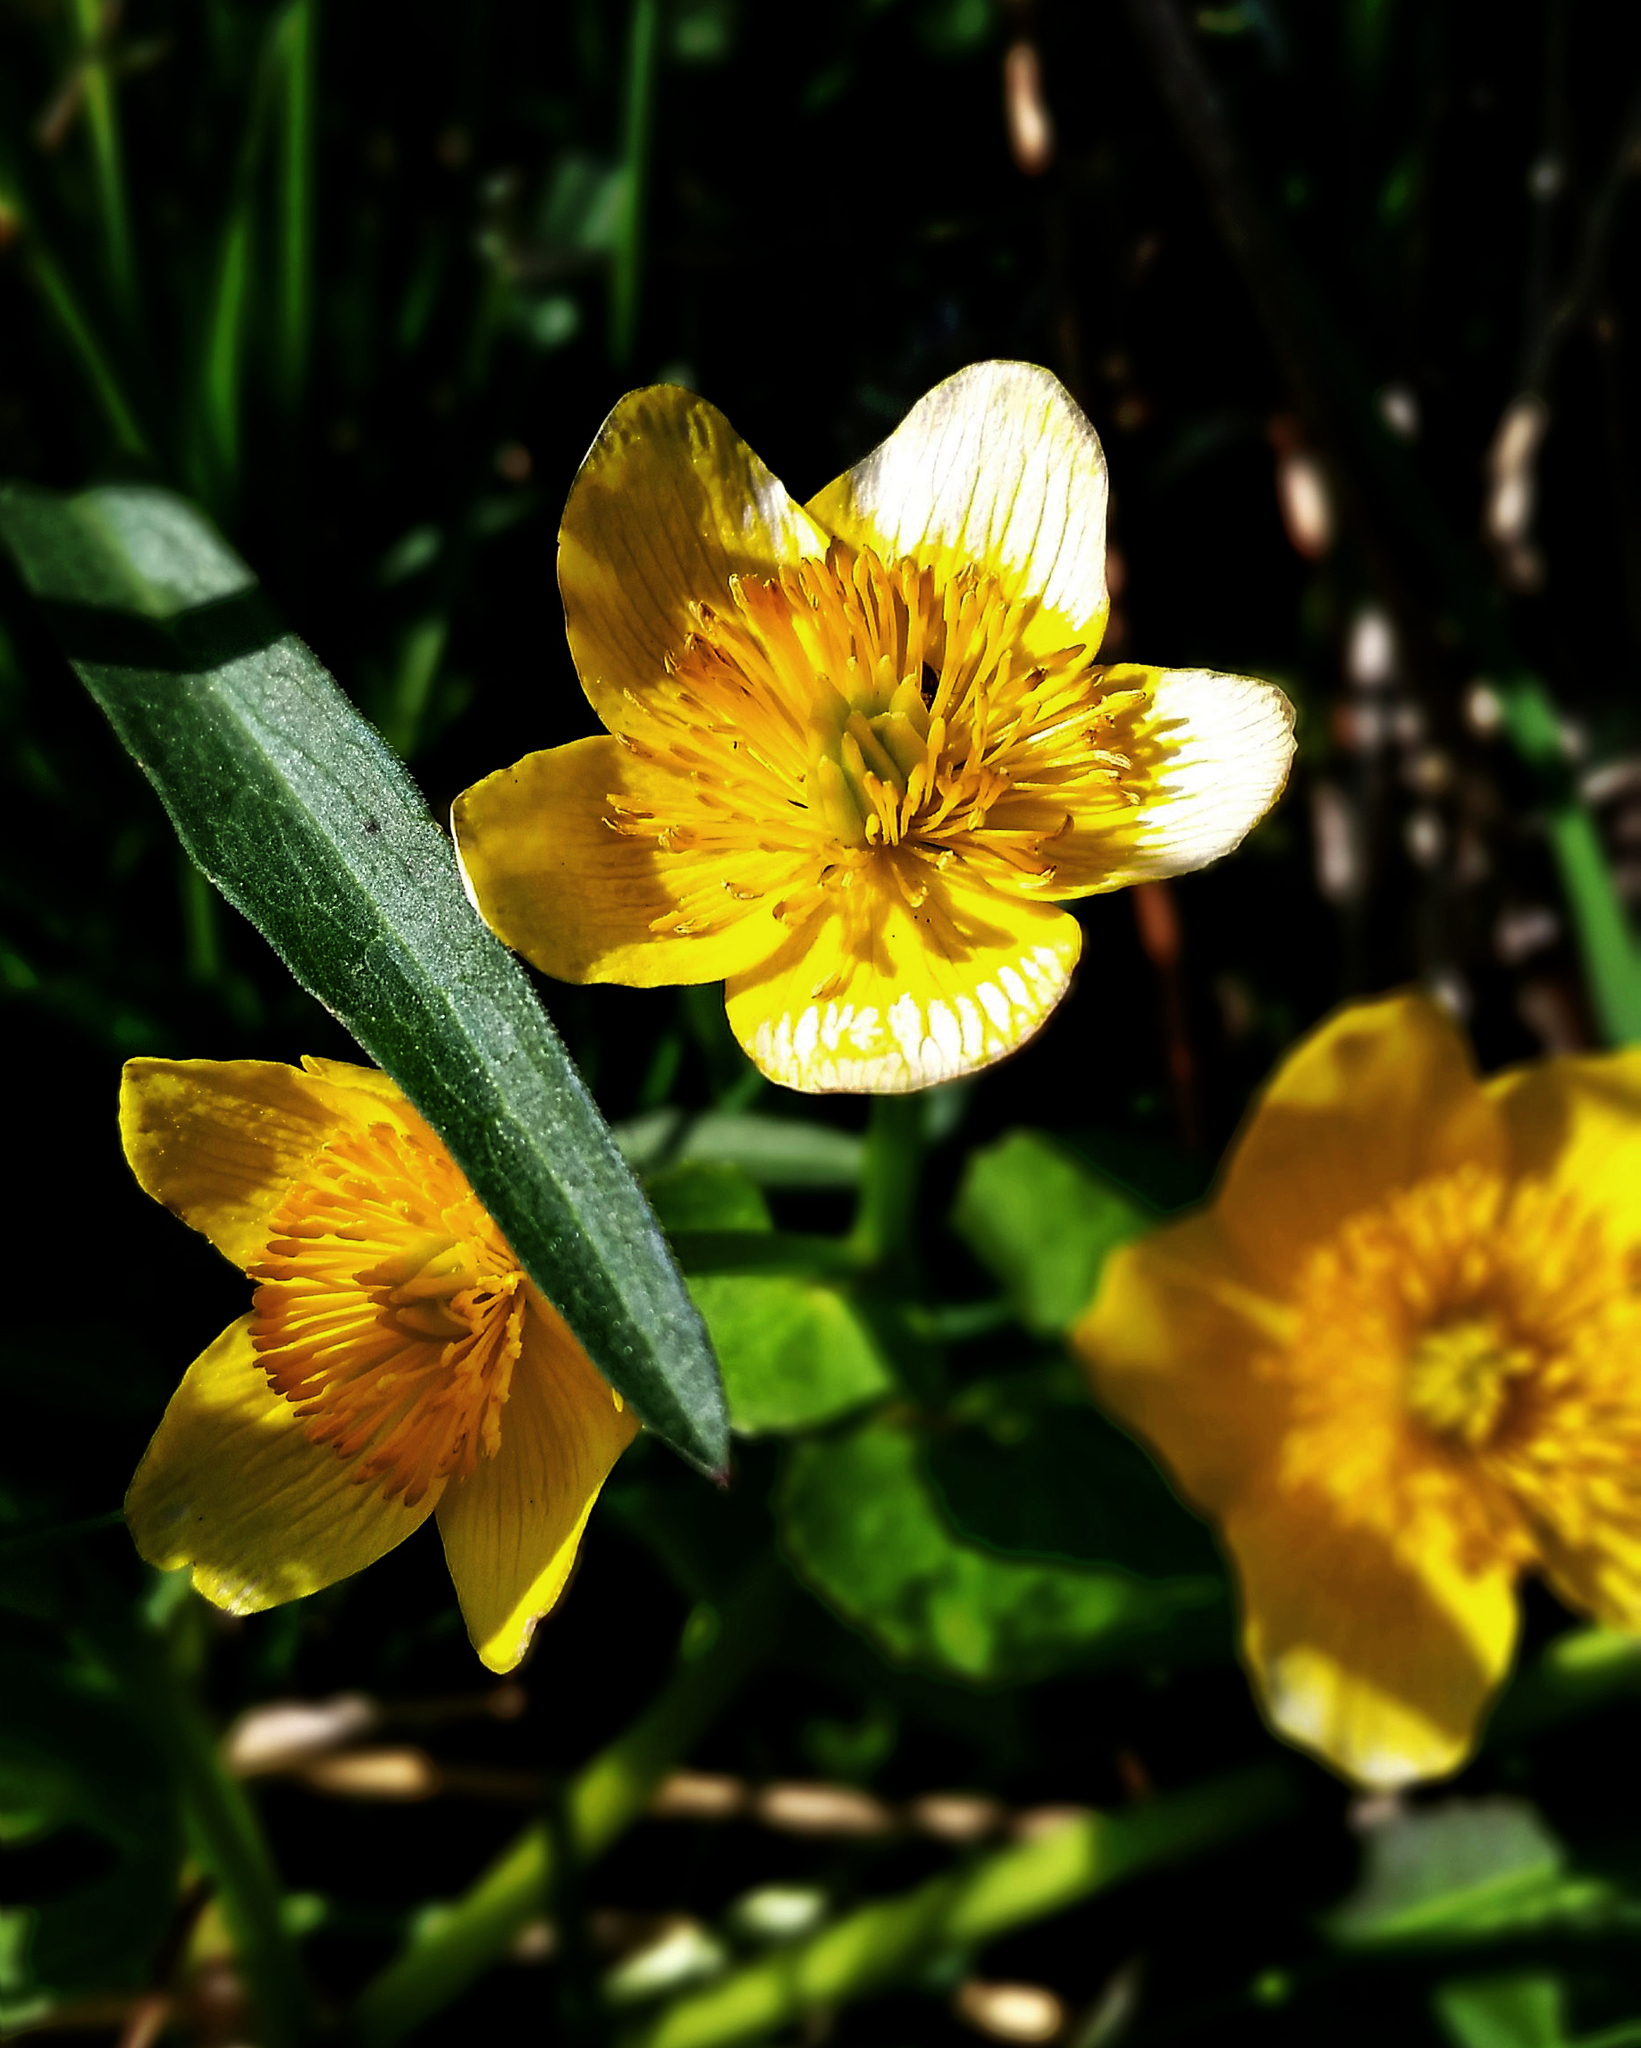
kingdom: Plantae
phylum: Tracheophyta
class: Magnoliopsida
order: Ranunculales
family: Ranunculaceae
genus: Caltha
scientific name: Caltha palustris
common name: Marsh marigold
